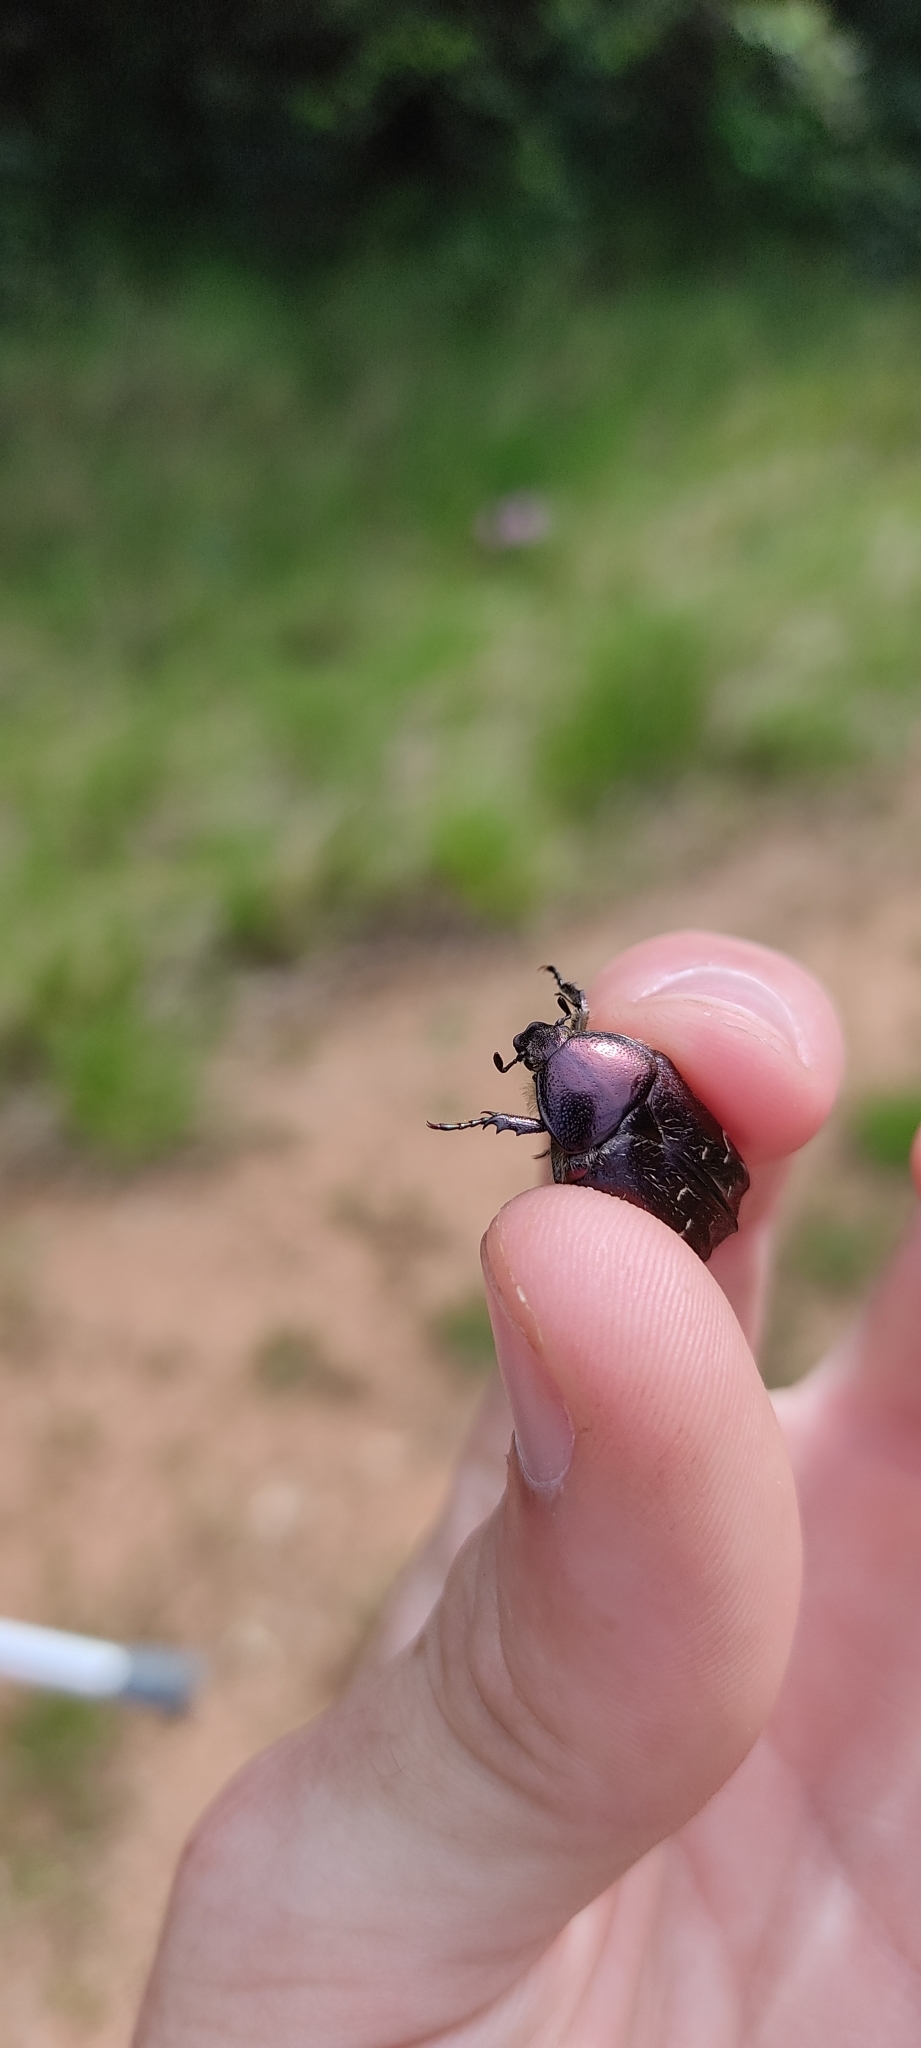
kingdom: Animalia
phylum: Arthropoda
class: Insecta
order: Coleoptera
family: Scarabaeidae
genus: Cetonia
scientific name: Cetonia aurata
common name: Rose chafer
